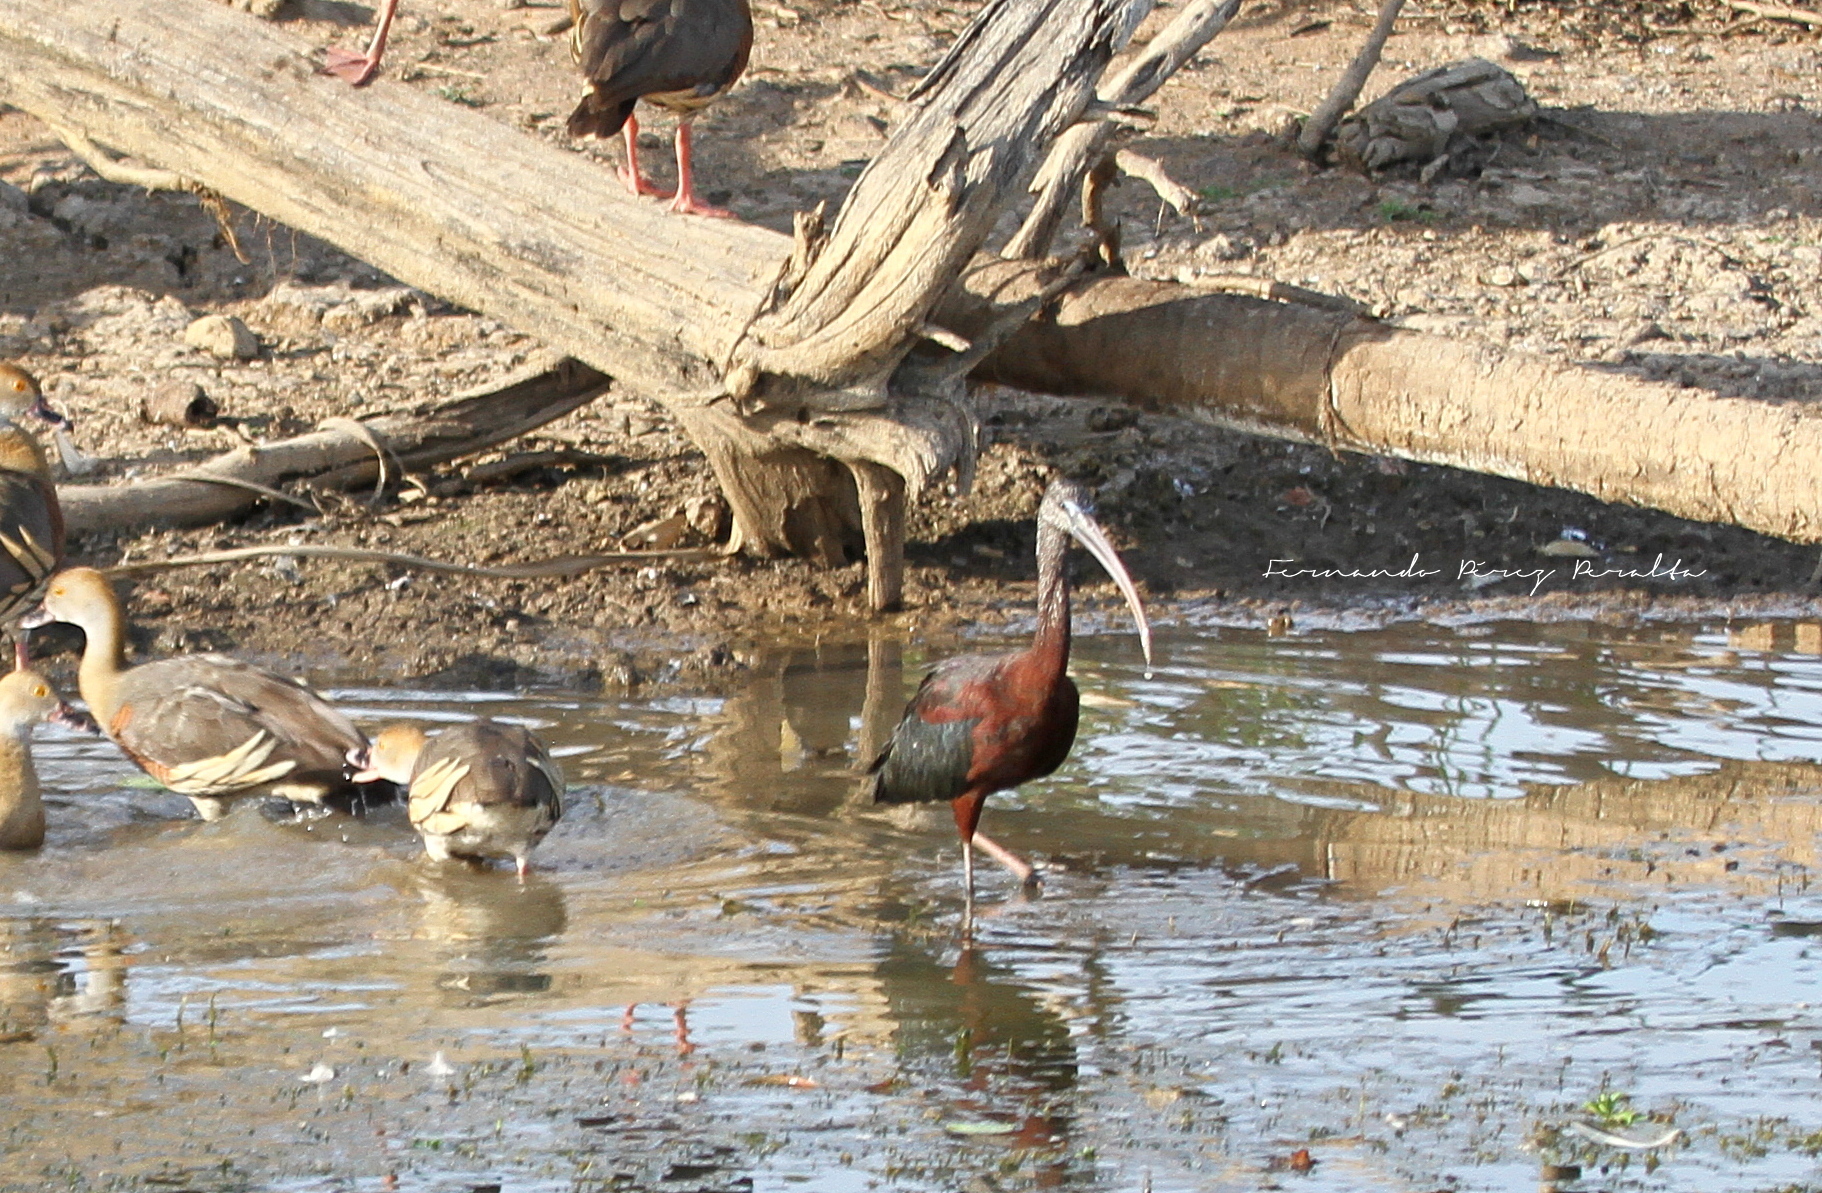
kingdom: Animalia
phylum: Chordata
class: Aves
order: Pelecaniformes
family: Threskiornithidae
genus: Plegadis
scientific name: Plegadis falcinellus
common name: Glossy ibis
